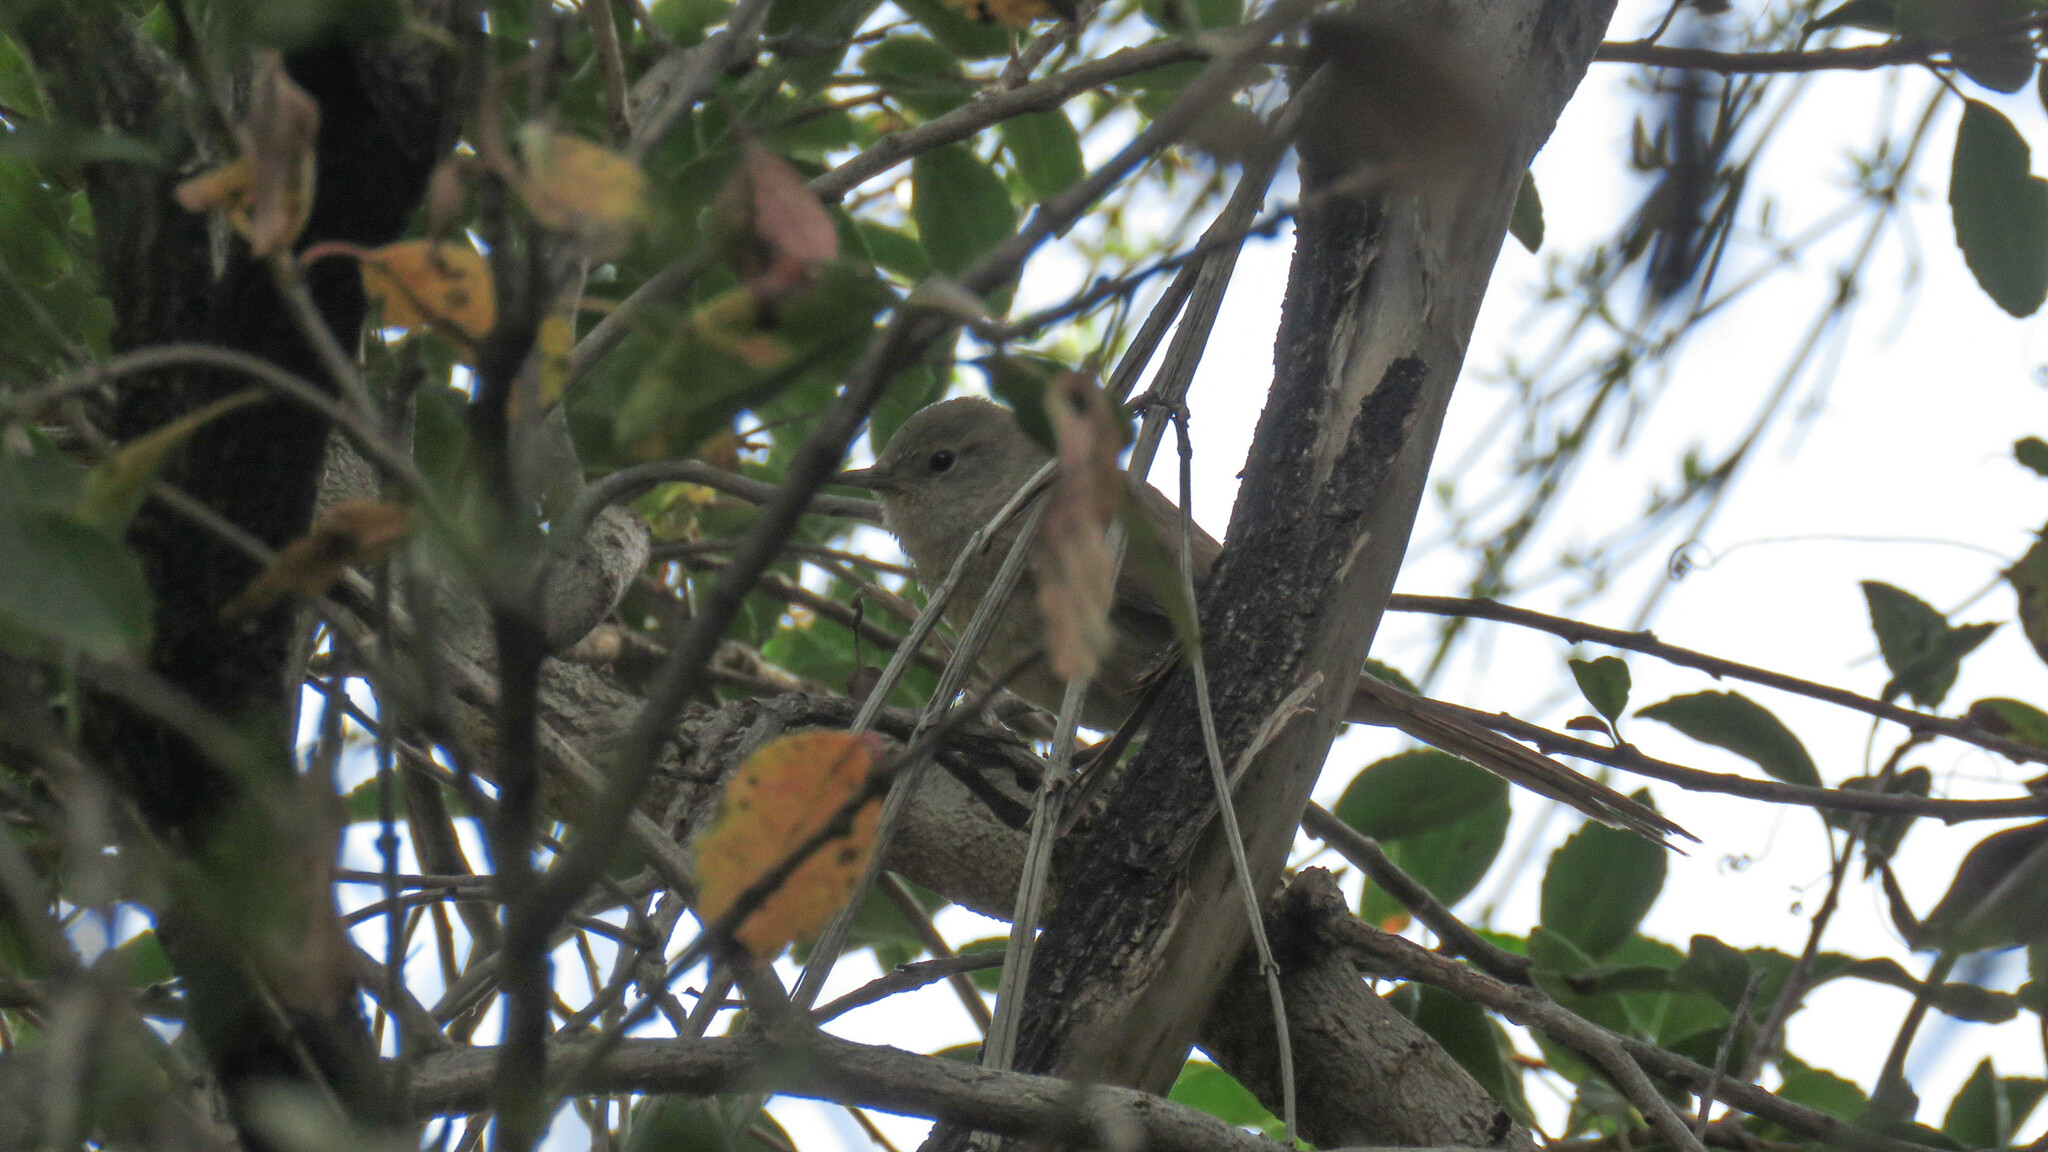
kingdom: Animalia
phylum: Chordata
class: Aves
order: Passeriformes
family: Furnariidae
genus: Asthenes
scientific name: Asthenes pyrrholeuca
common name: Sharp-billed canastero
